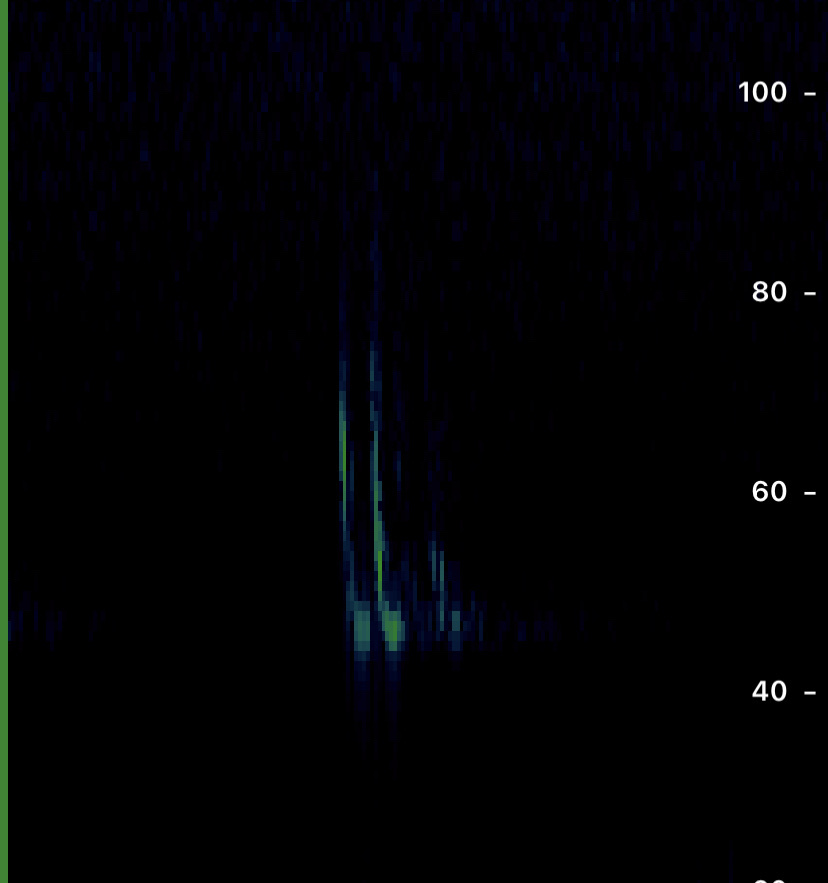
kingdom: Animalia
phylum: Chordata
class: Mammalia
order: Chiroptera
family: Vespertilionidae
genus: Pipistrellus
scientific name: Pipistrellus pipistrellus
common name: Common pipistrelle
